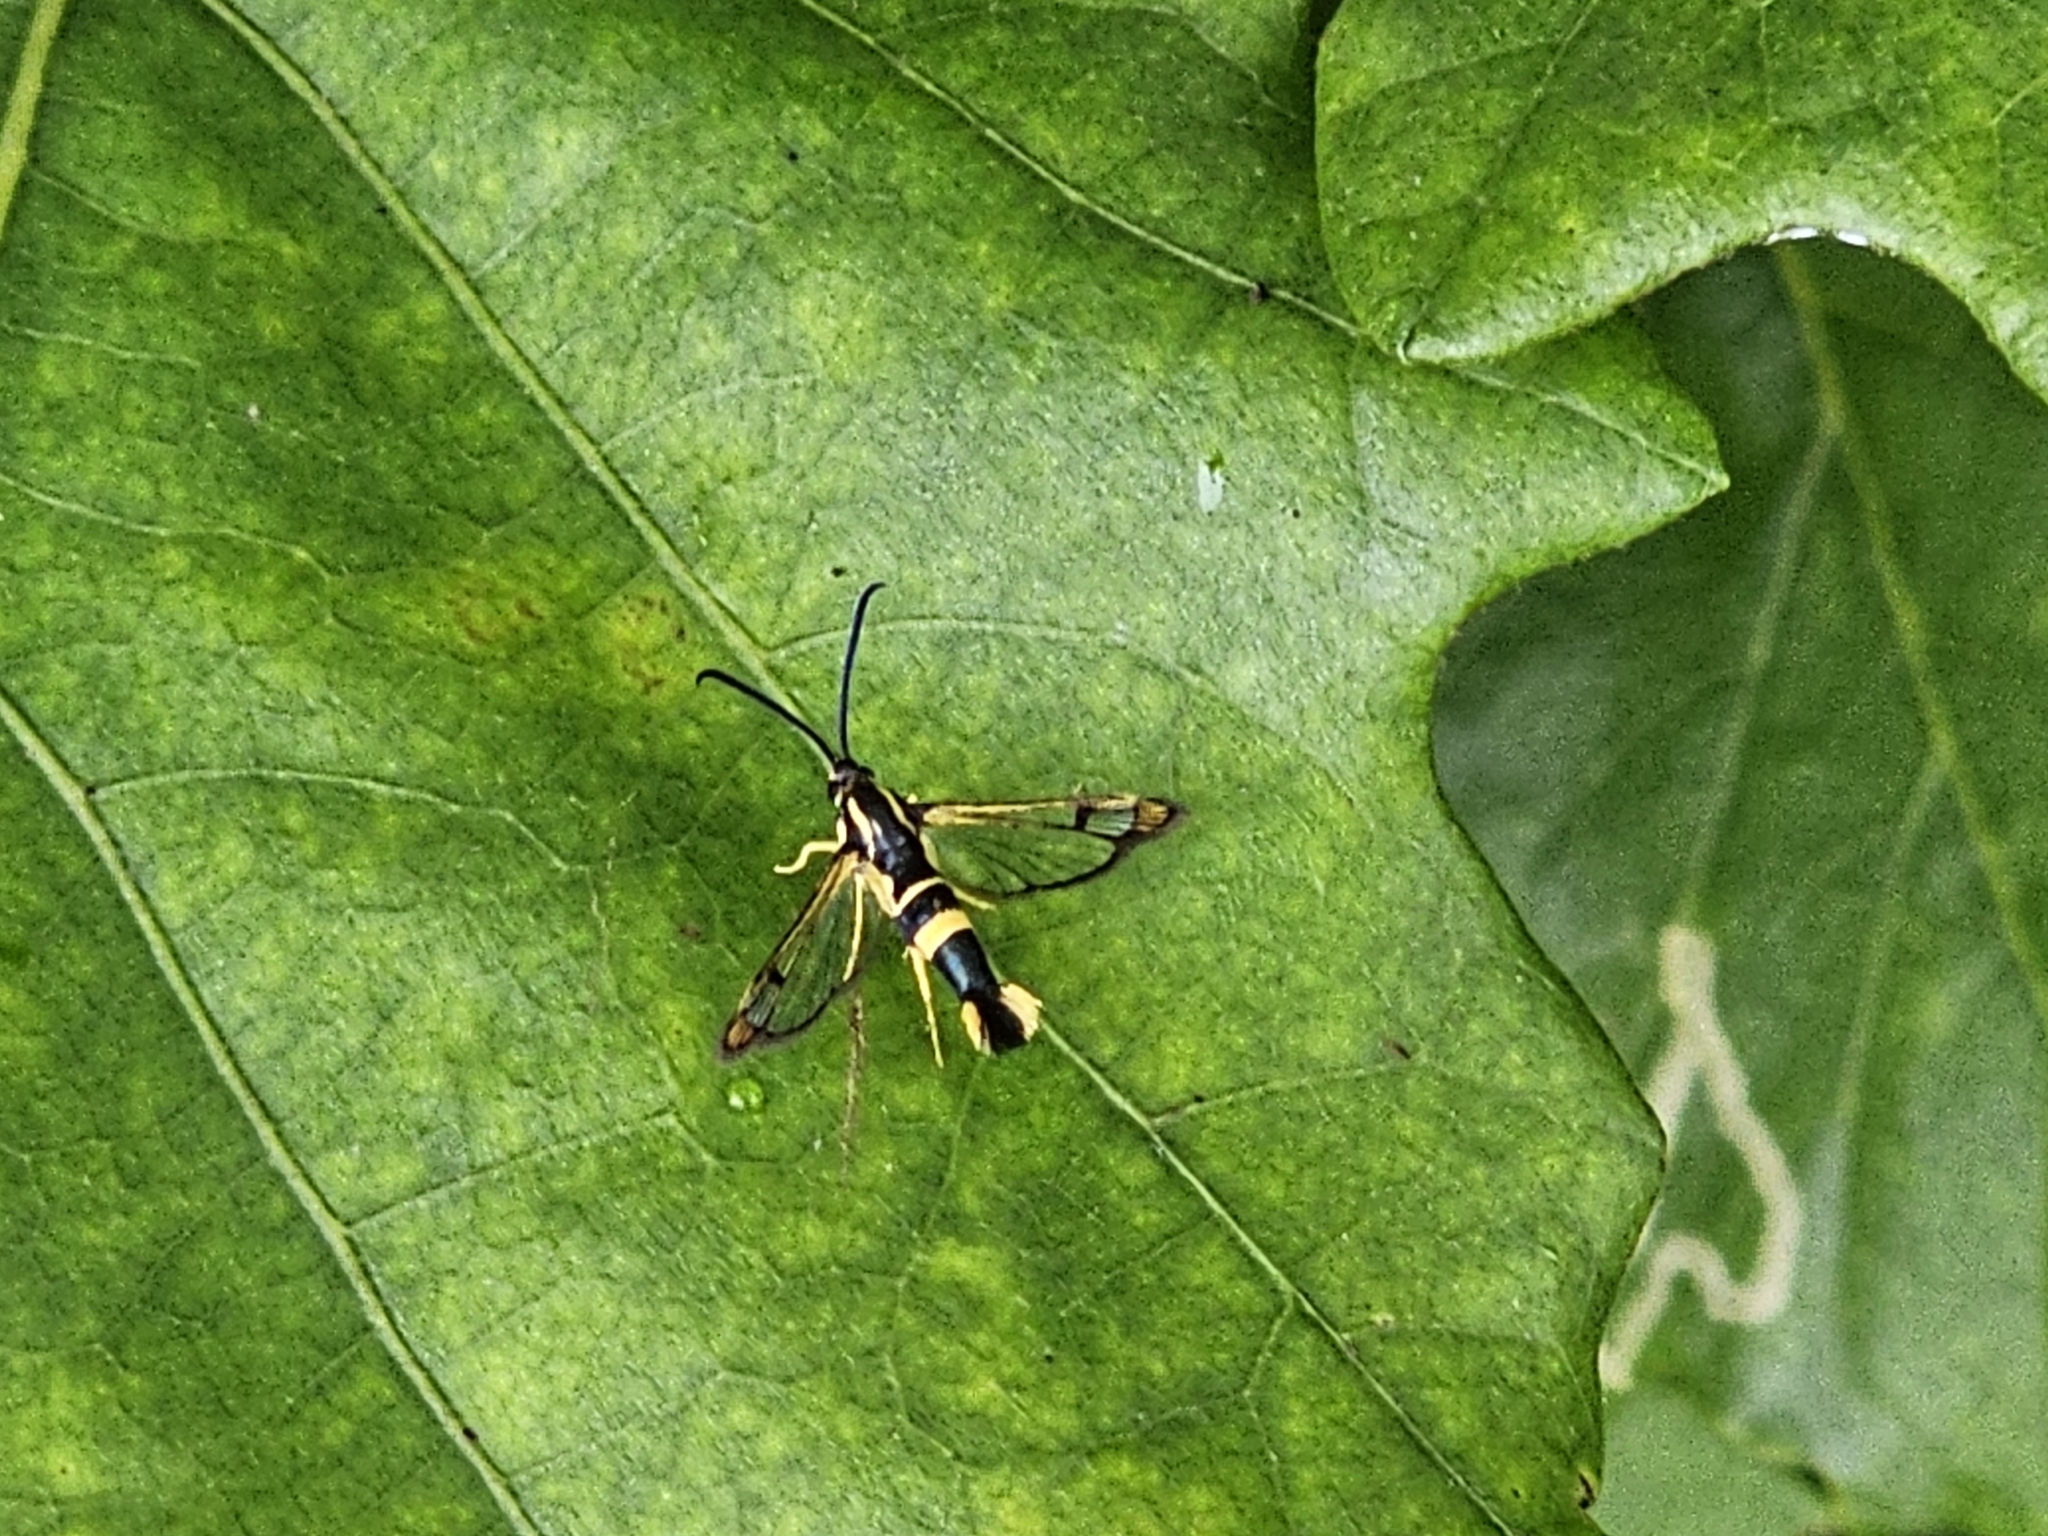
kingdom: Animalia
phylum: Arthropoda
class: Insecta
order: Lepidoptera
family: Sesiidae
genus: Synanthedon
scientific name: Synanthedon scitula
